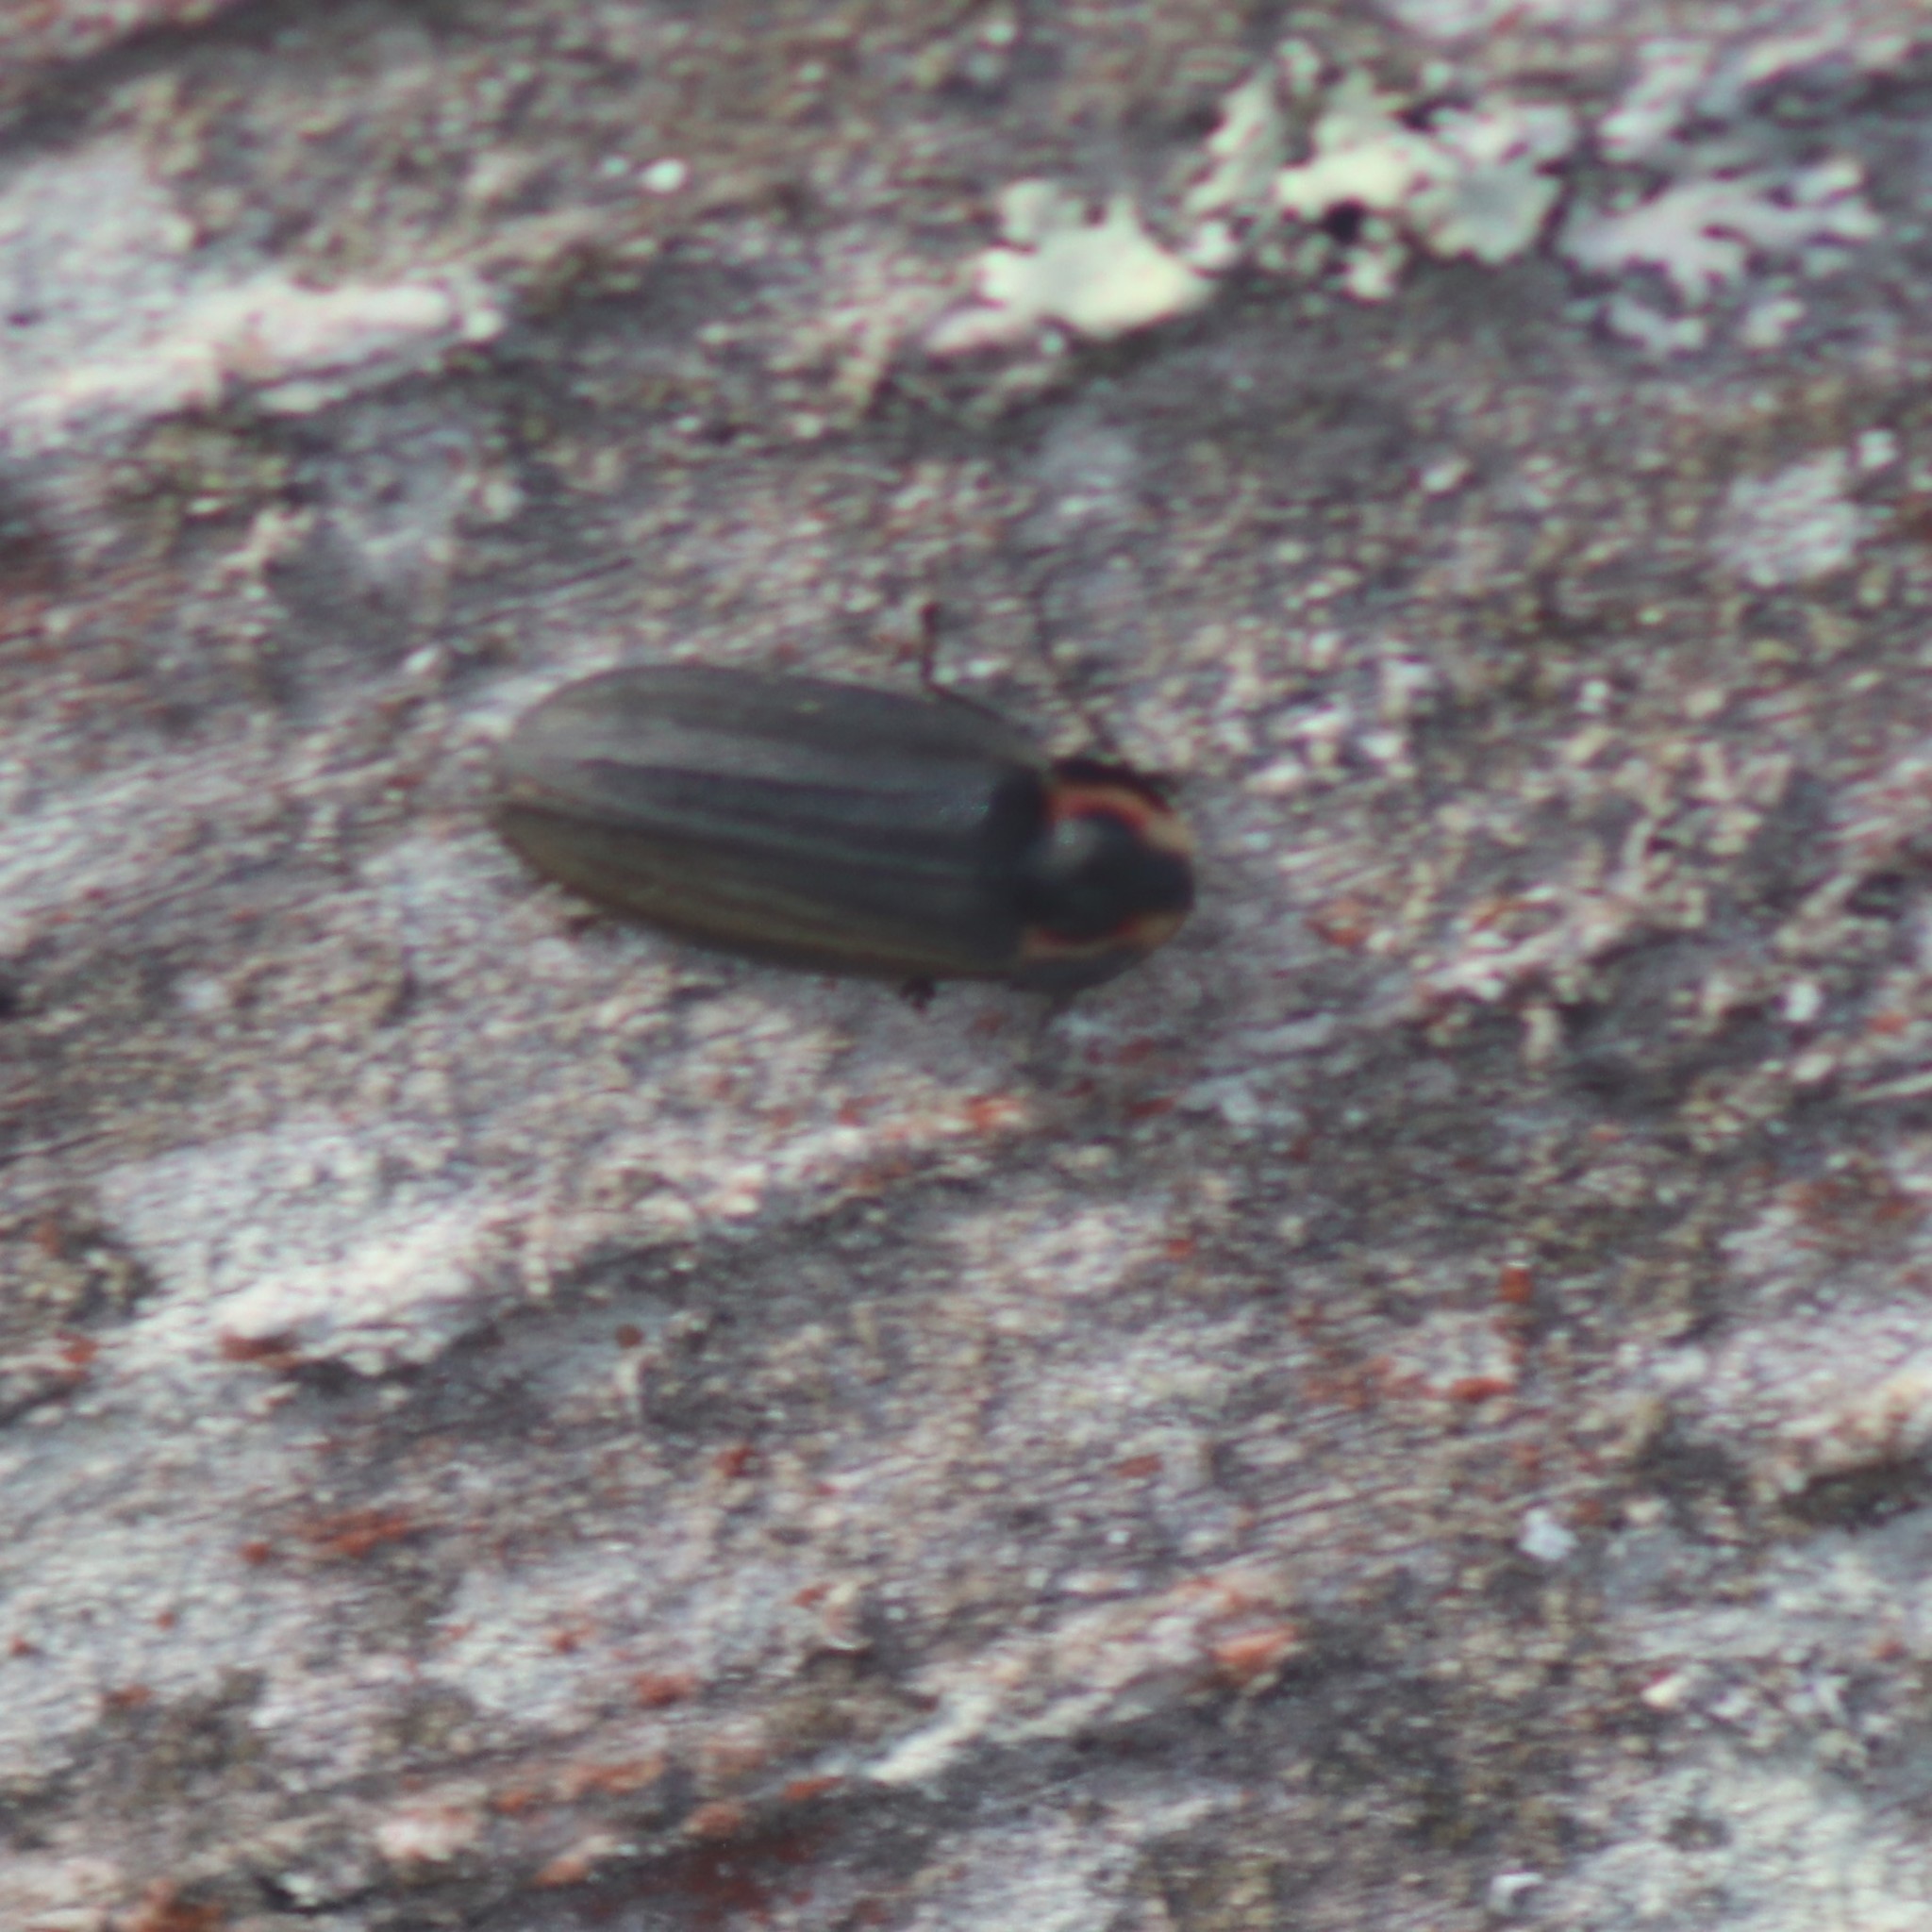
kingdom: Animalia
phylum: Arthropoda
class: Insecta
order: Coleoptera
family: Lampyridae
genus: Photinus
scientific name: Photinus corrusca
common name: Winter firefly
